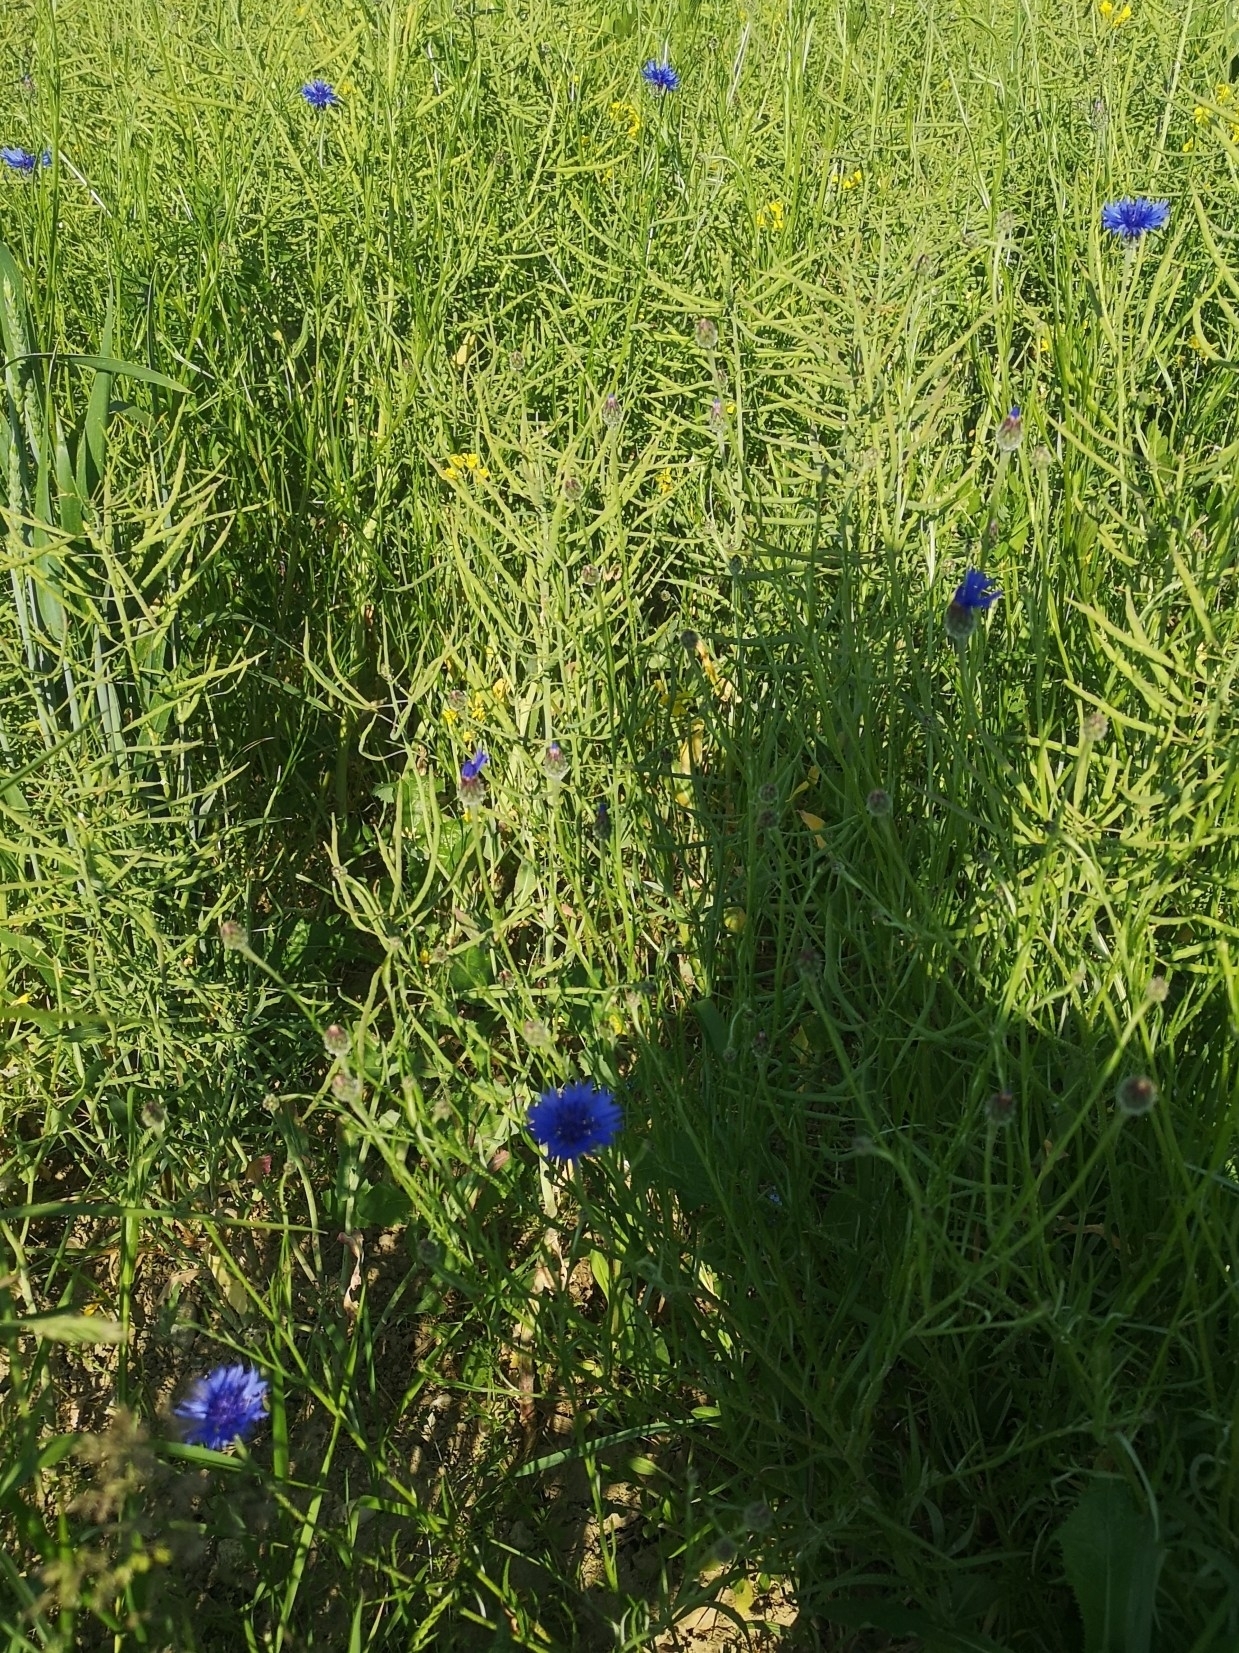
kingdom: Plantae
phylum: Tracheophyta
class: Magnoliopsida
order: Asterales
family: Asteraceae
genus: Centaurea
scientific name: Centaurea cyanus
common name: Cornflower
